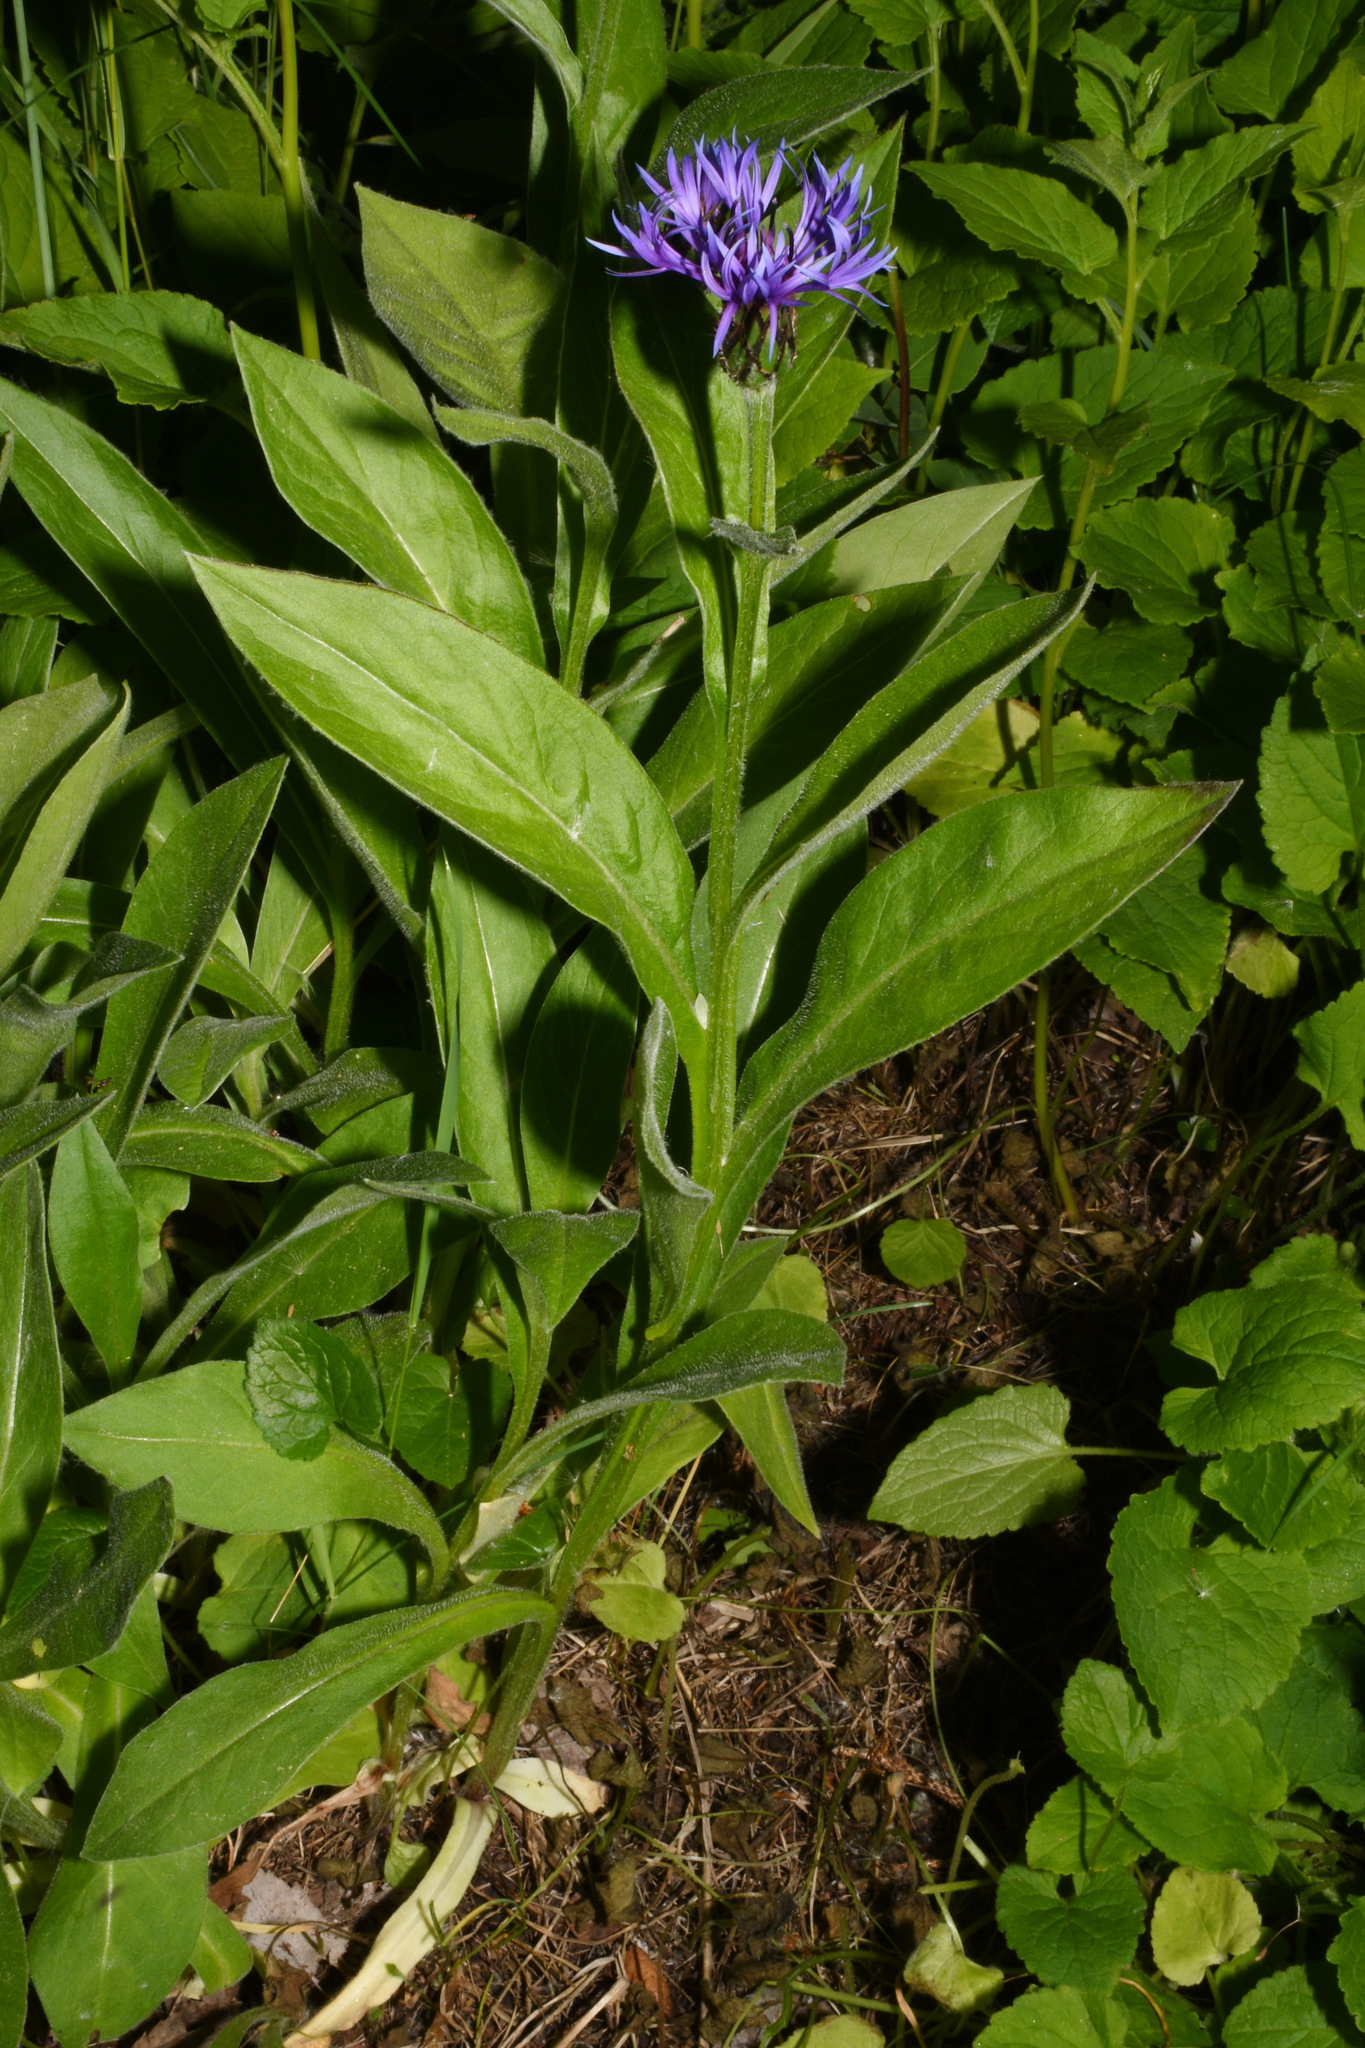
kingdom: Plantae
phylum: Tracheophyta
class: Magnoliopsida
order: Asterales
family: Asteraceae
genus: Centaurea
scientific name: Centaurea montana
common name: Perennial cornflower
